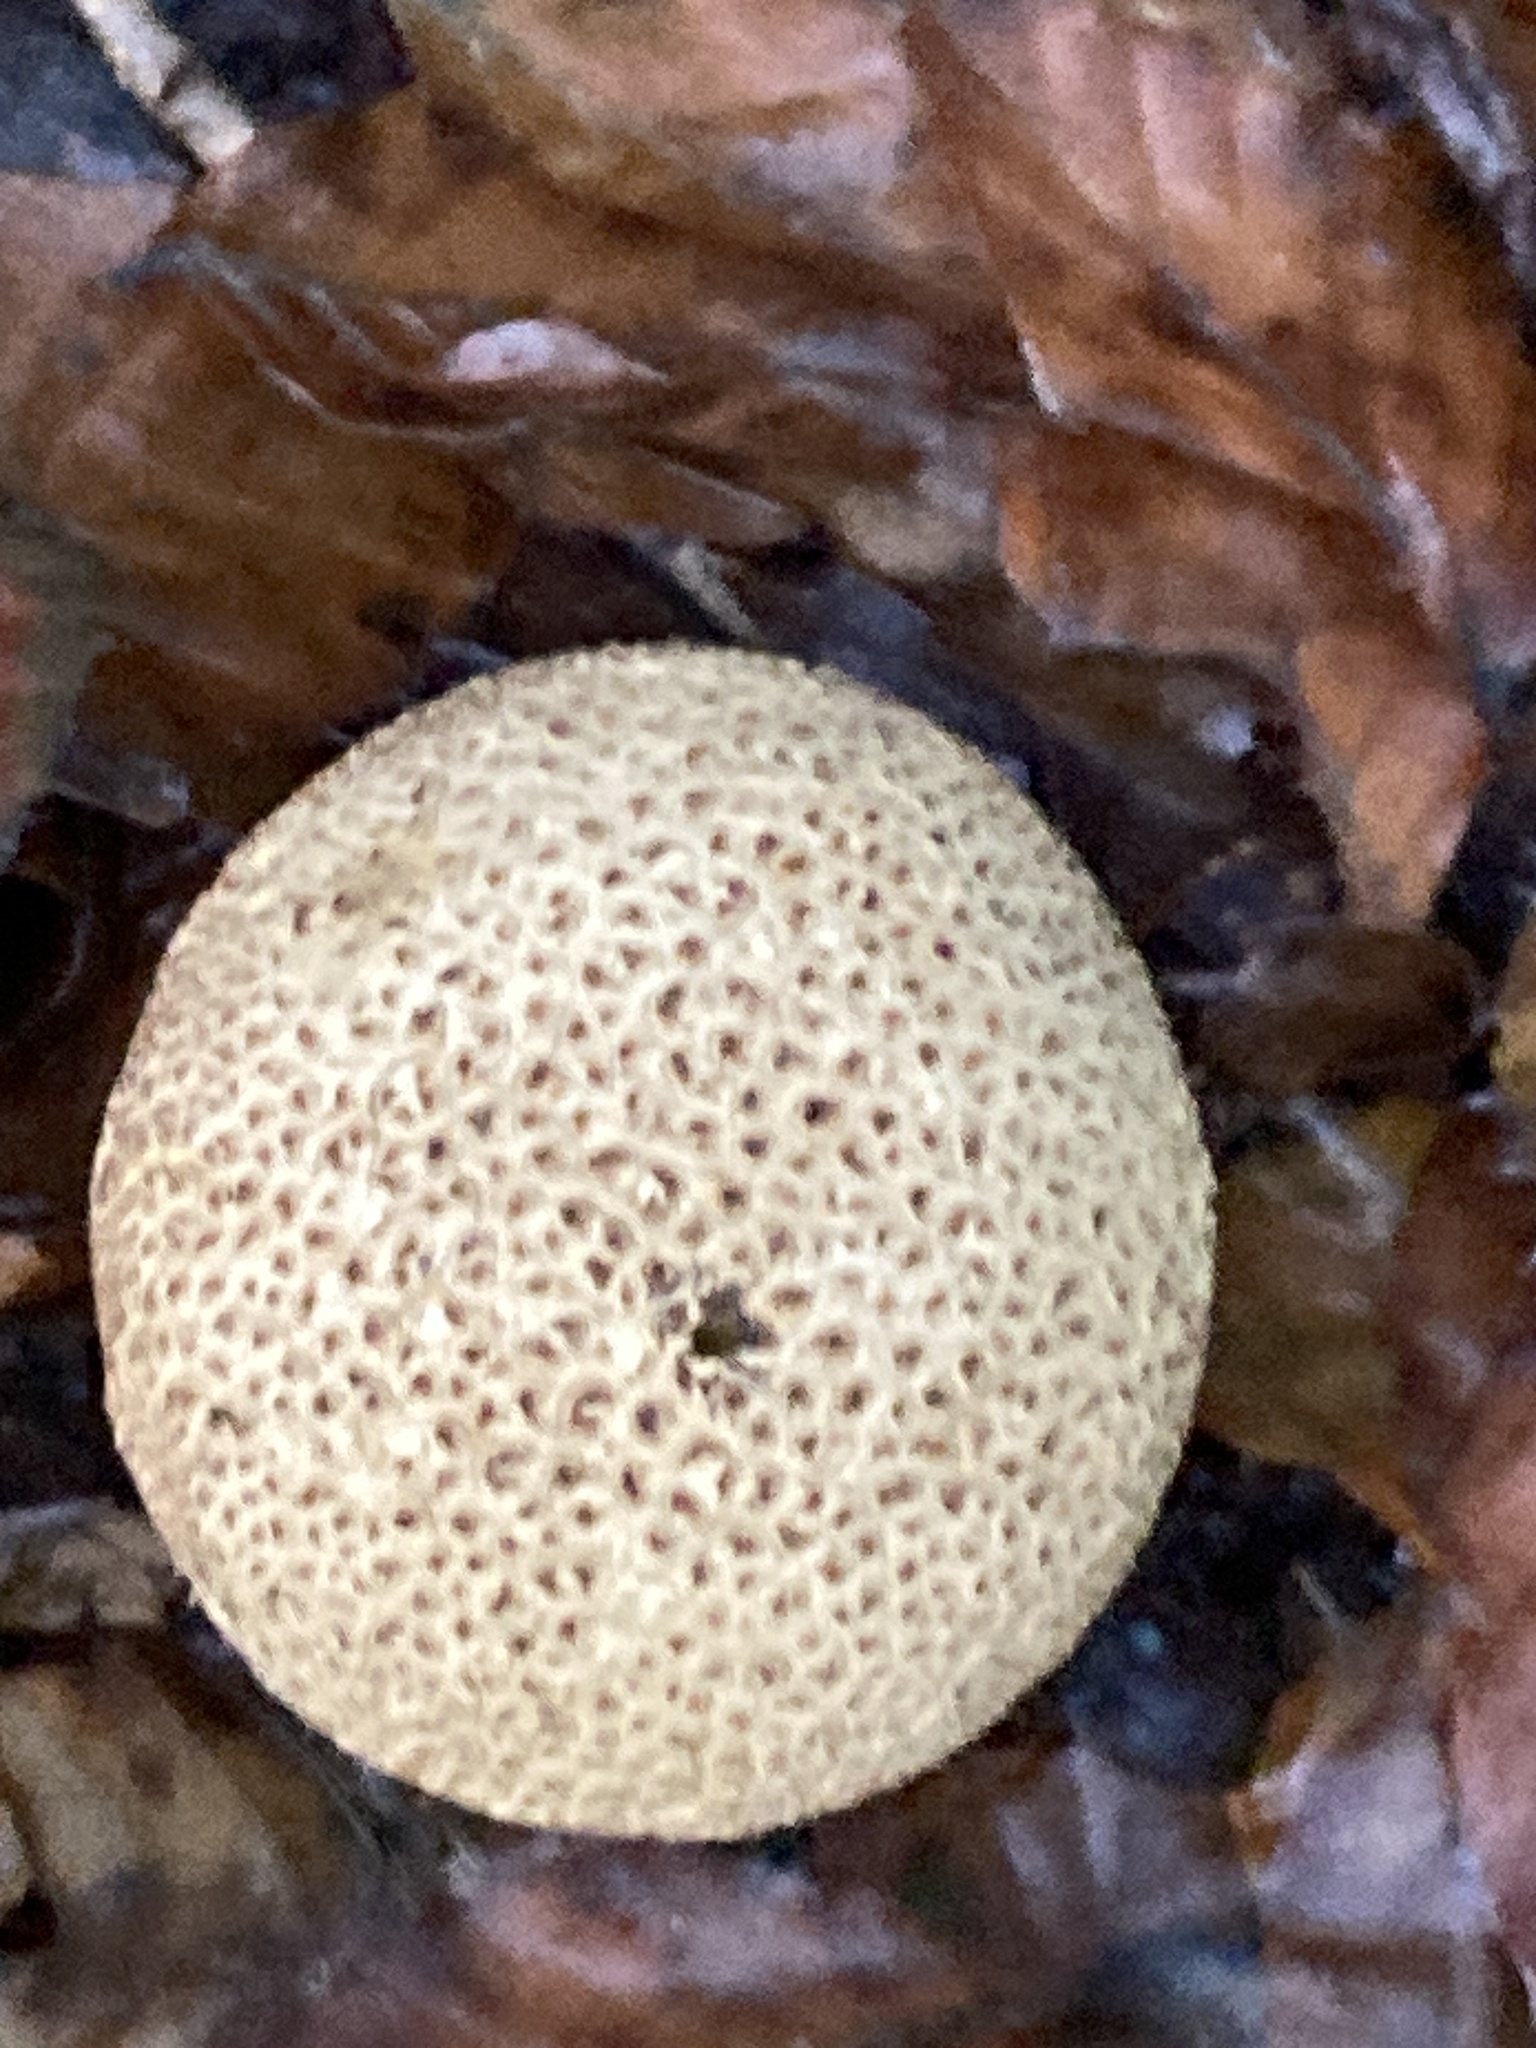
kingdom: Fungi
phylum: Basidiomycota
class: Agaricomycetes
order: Boletales
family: Sclerodermataceae
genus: Scleroderma
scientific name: Scleroderma citrinum
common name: Common earthball
